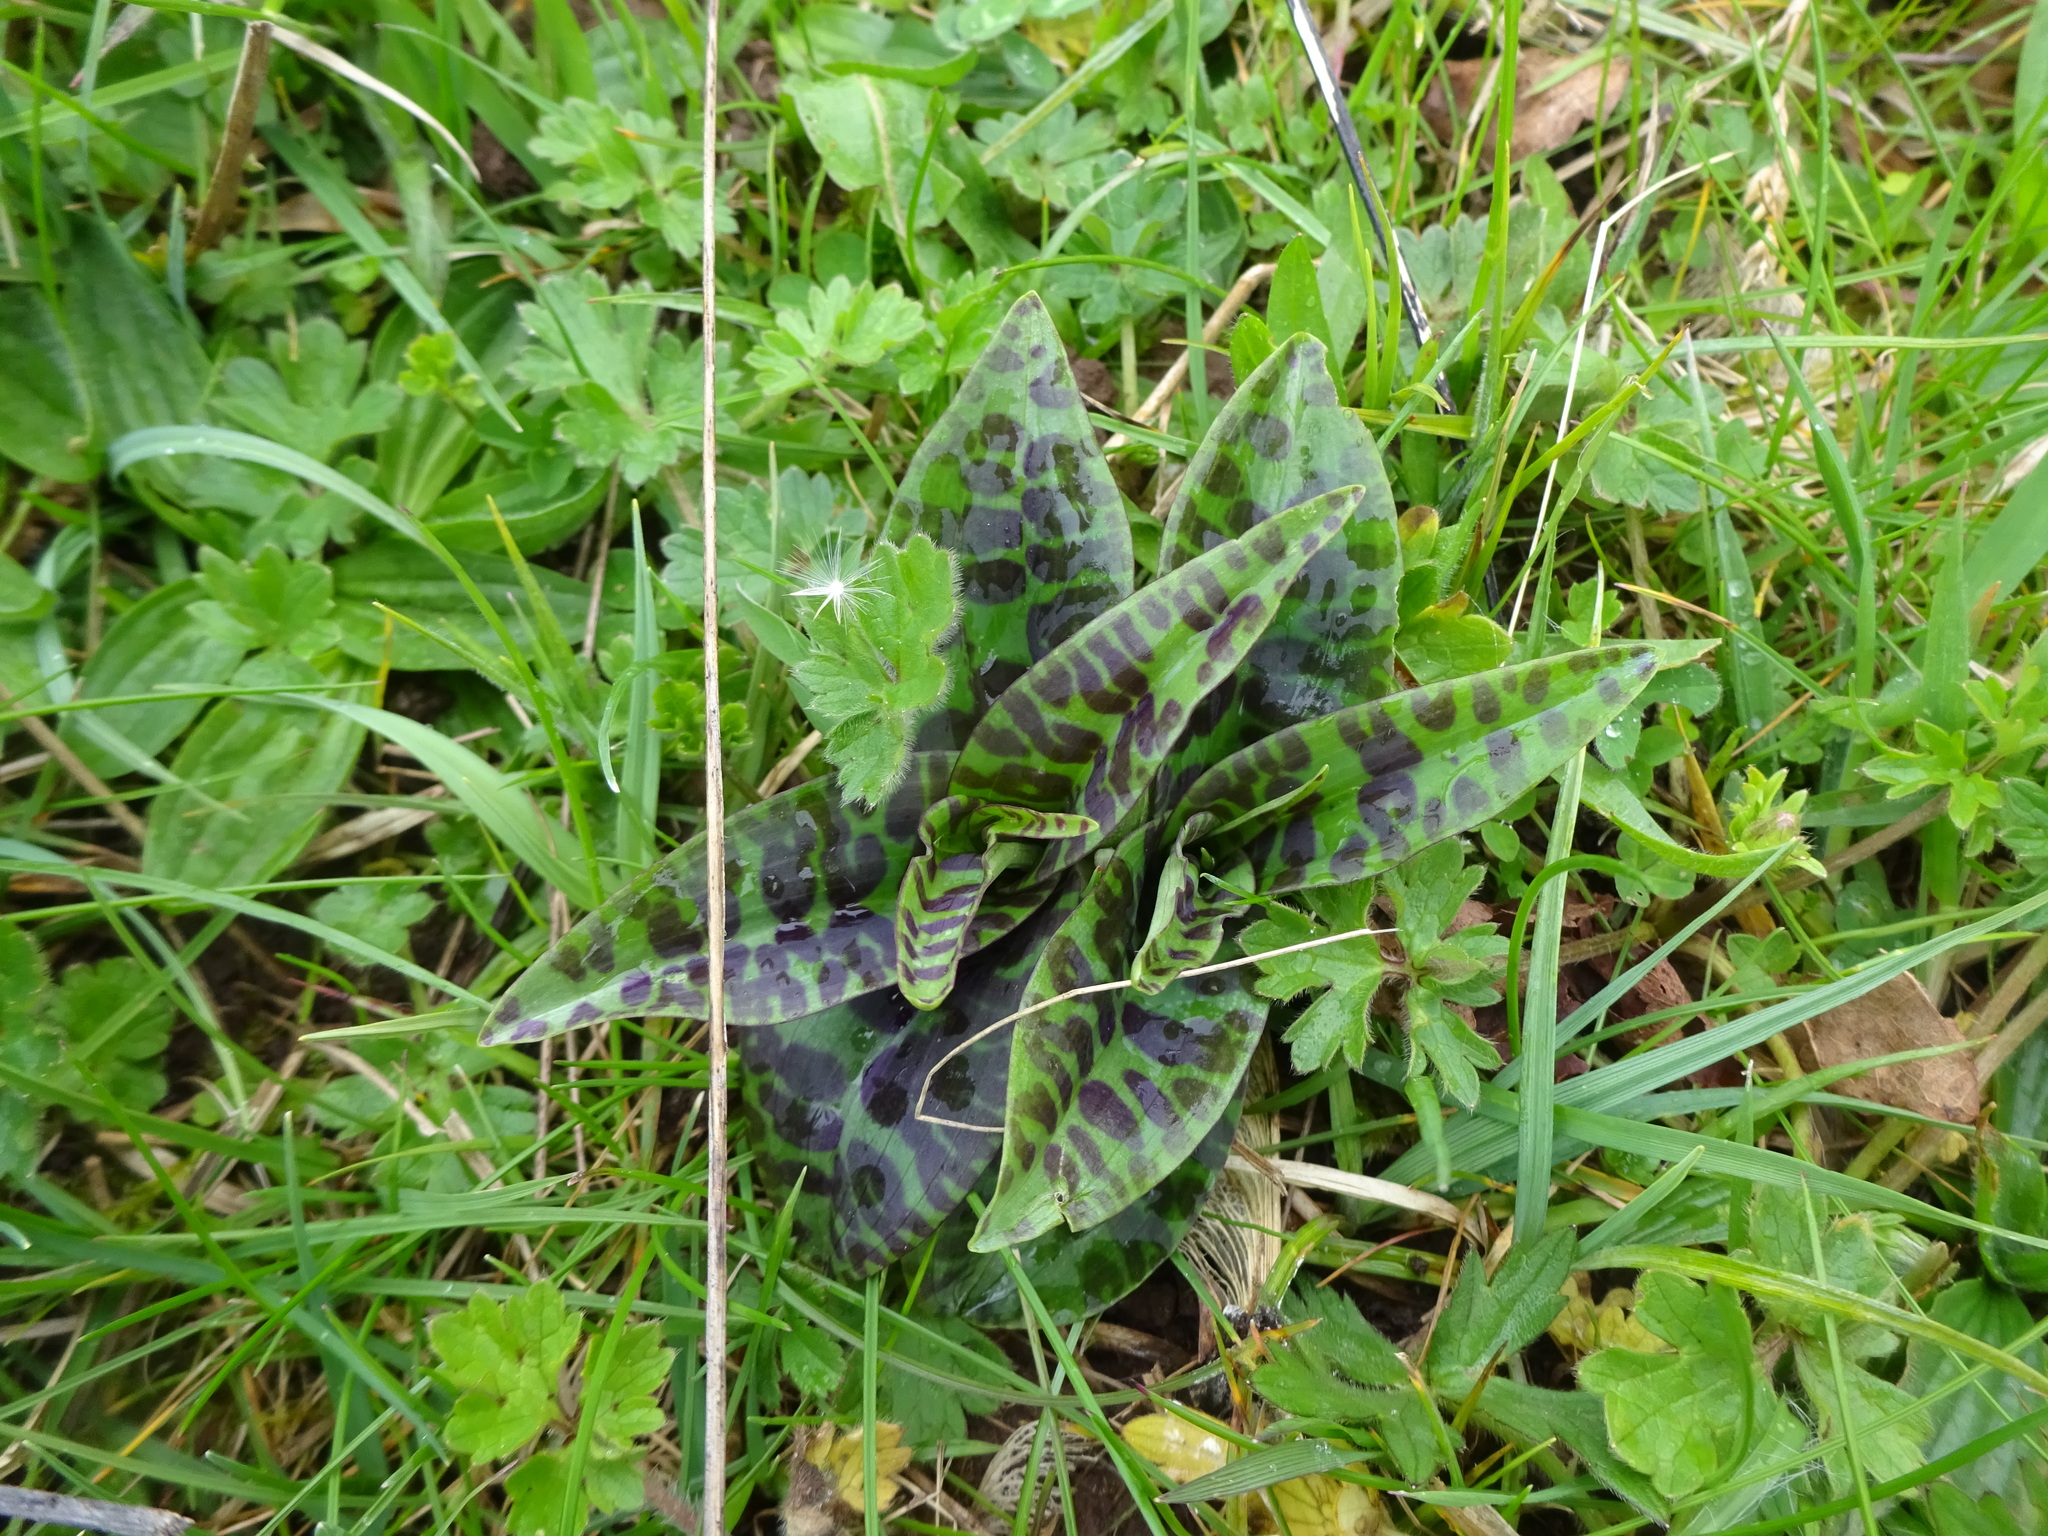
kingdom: Plantae
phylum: Tracheophyta
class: Liliopsida
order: Asparagales
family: Orchidaceae
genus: Dactylorhiza
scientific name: Dactylorhiza maculata
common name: Heath spotted-orchid
